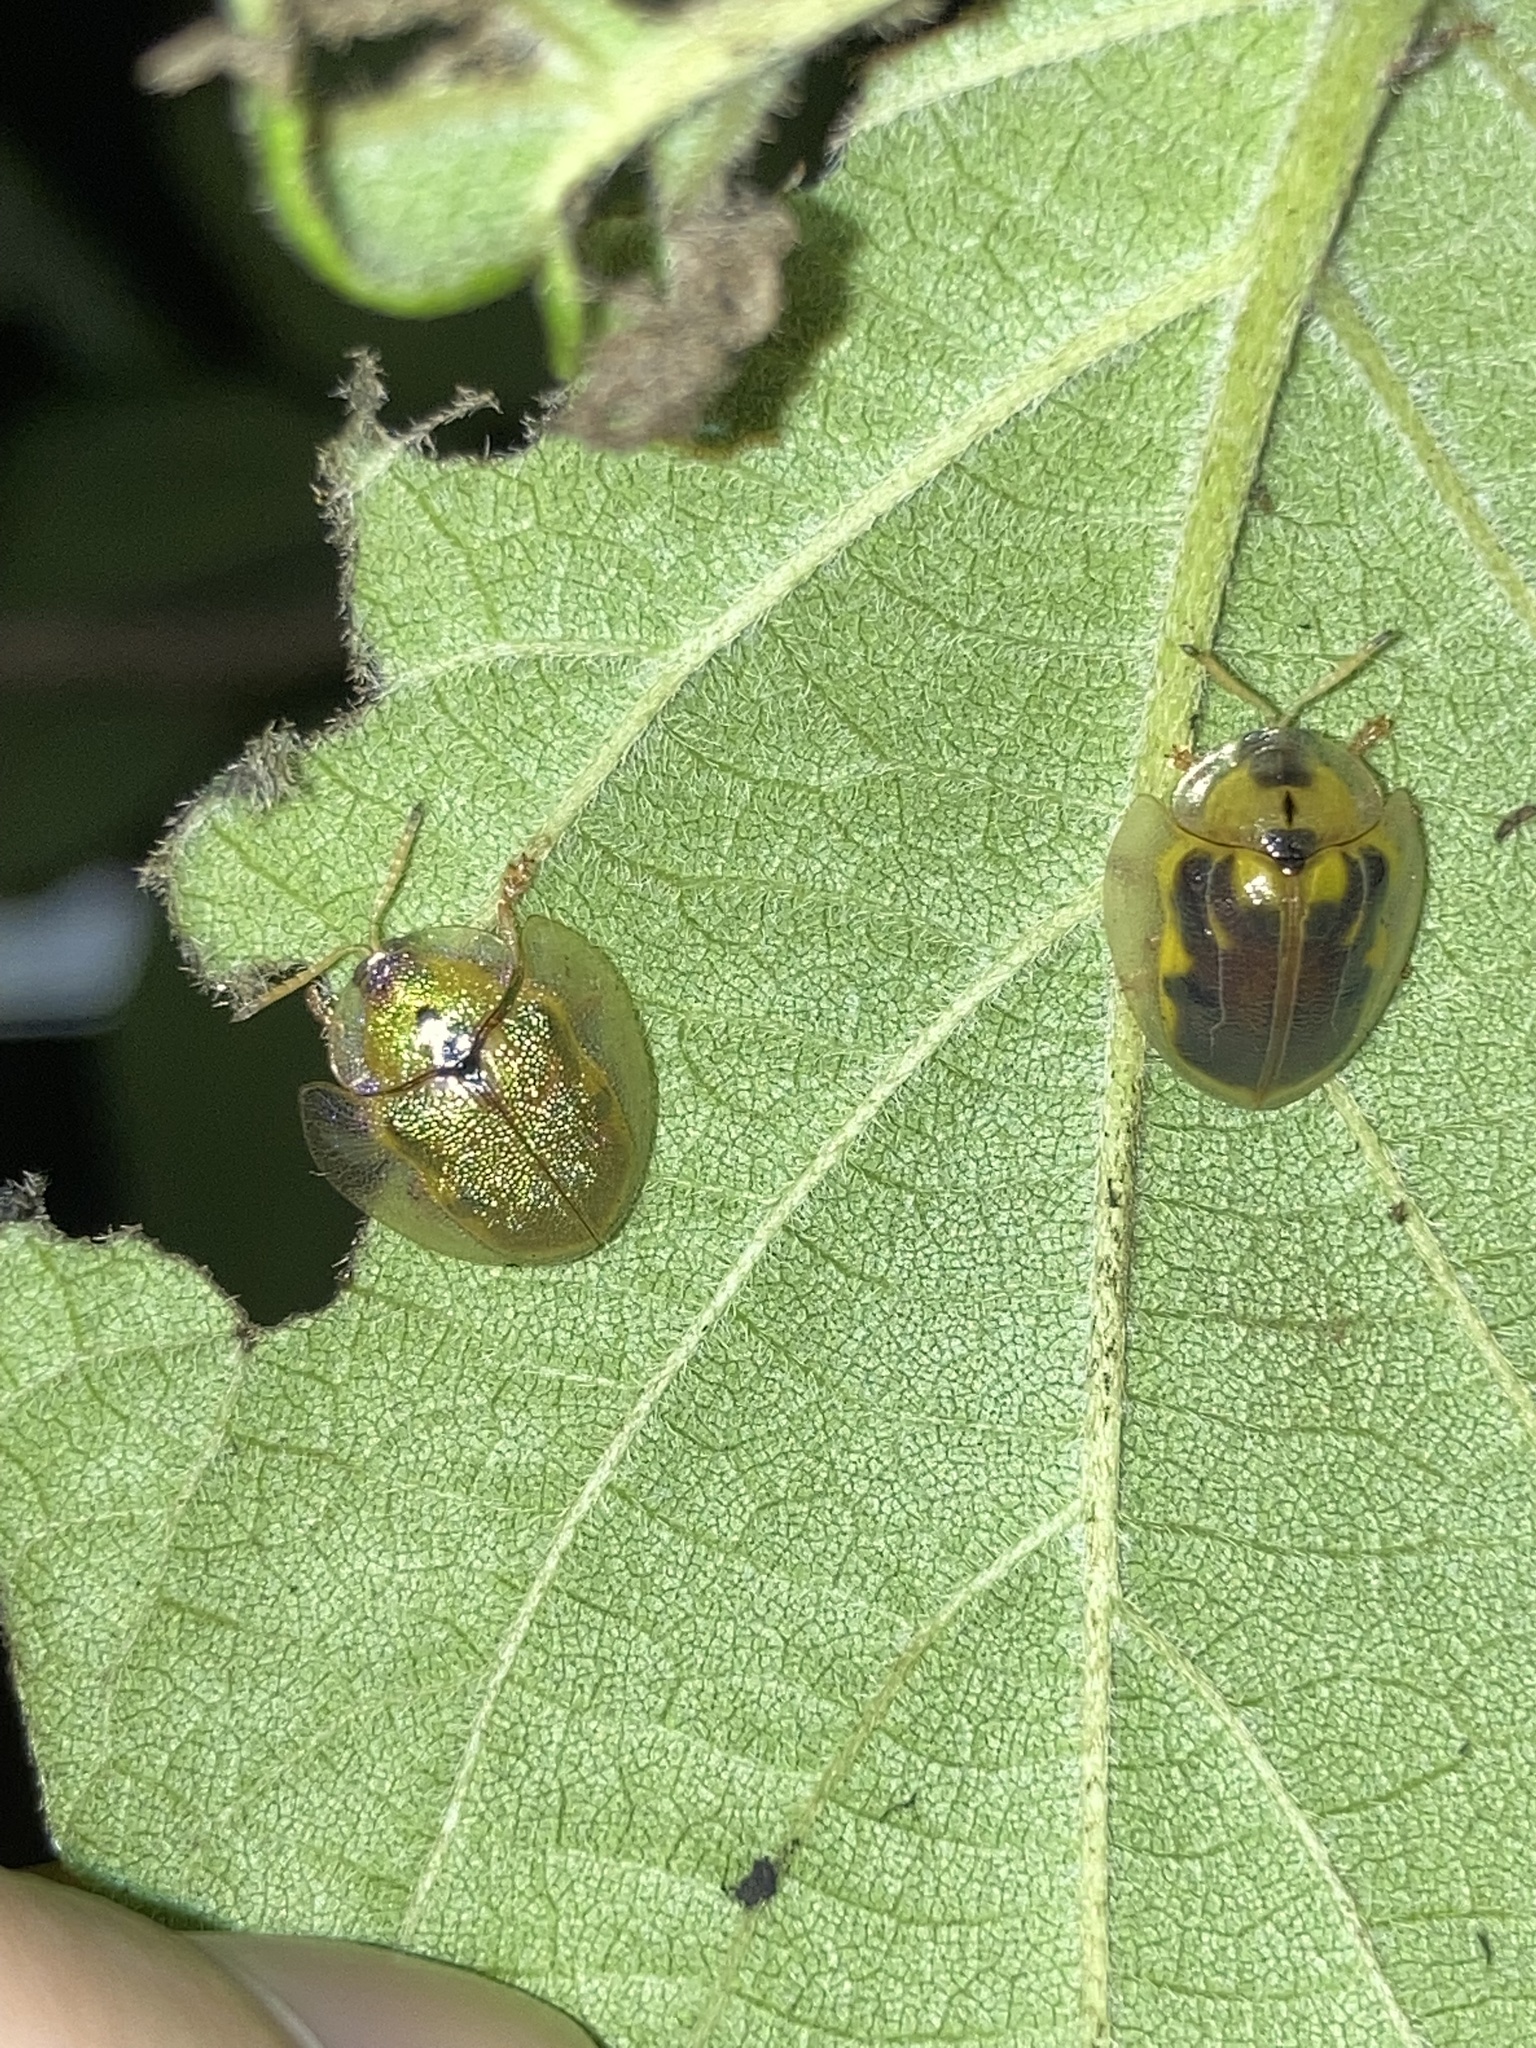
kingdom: Animalia
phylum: Arthropoda
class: Insecta
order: Coleoptera
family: Chrysomelidae
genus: Eurypepla
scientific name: Eurypepla calochroma
